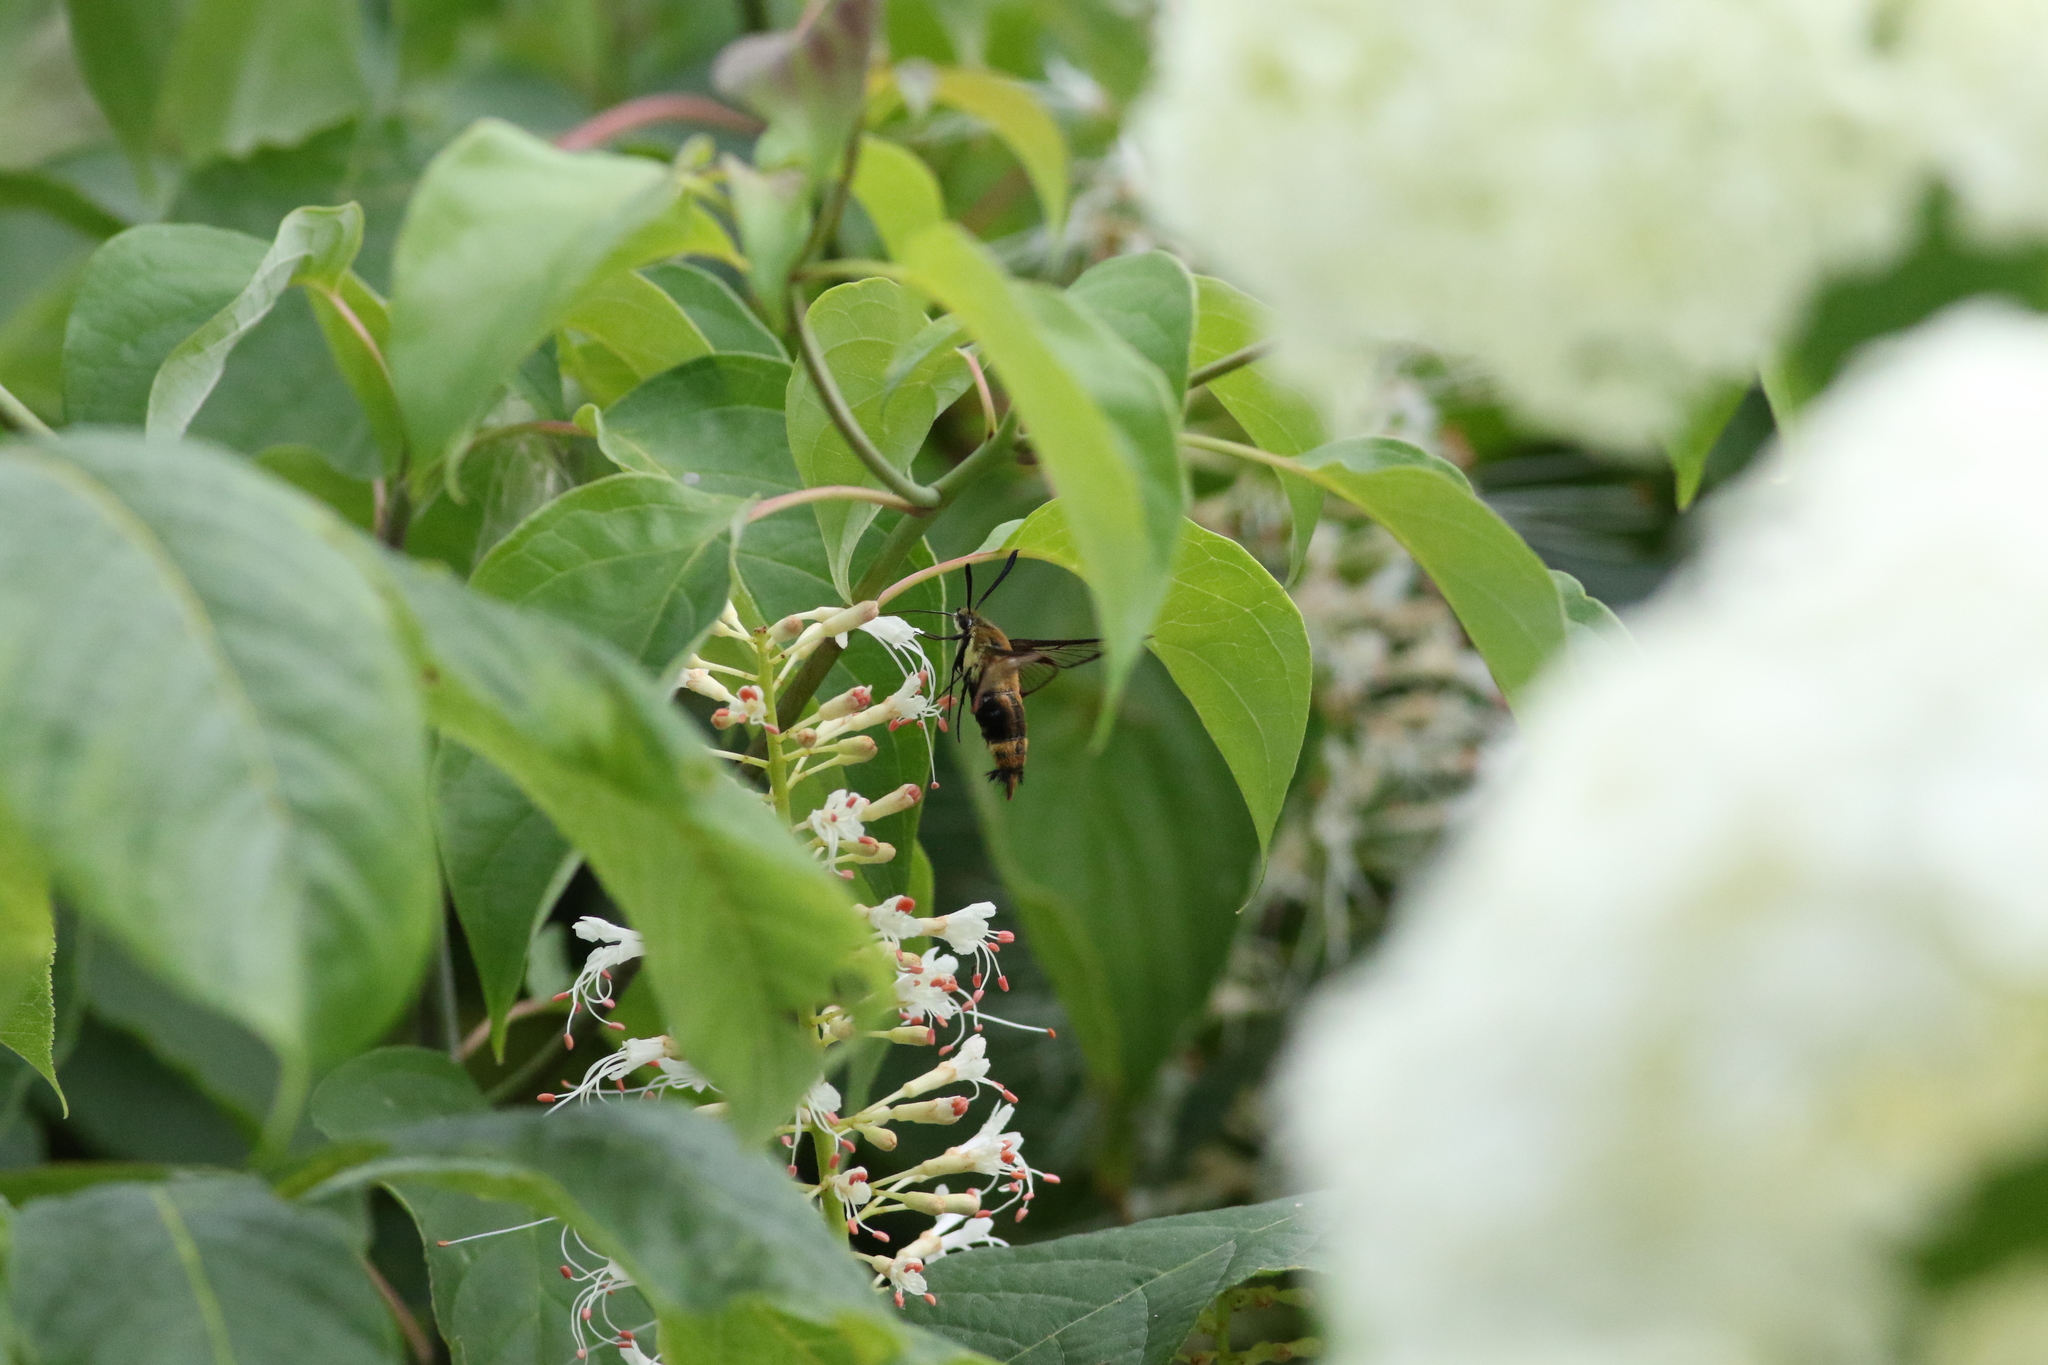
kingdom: Animalia
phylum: Arthropoda
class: Insecta
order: Lepidoptera
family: Sphingidae
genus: Hemaris
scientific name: Hemaris diffinis
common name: Bumblebee moth
